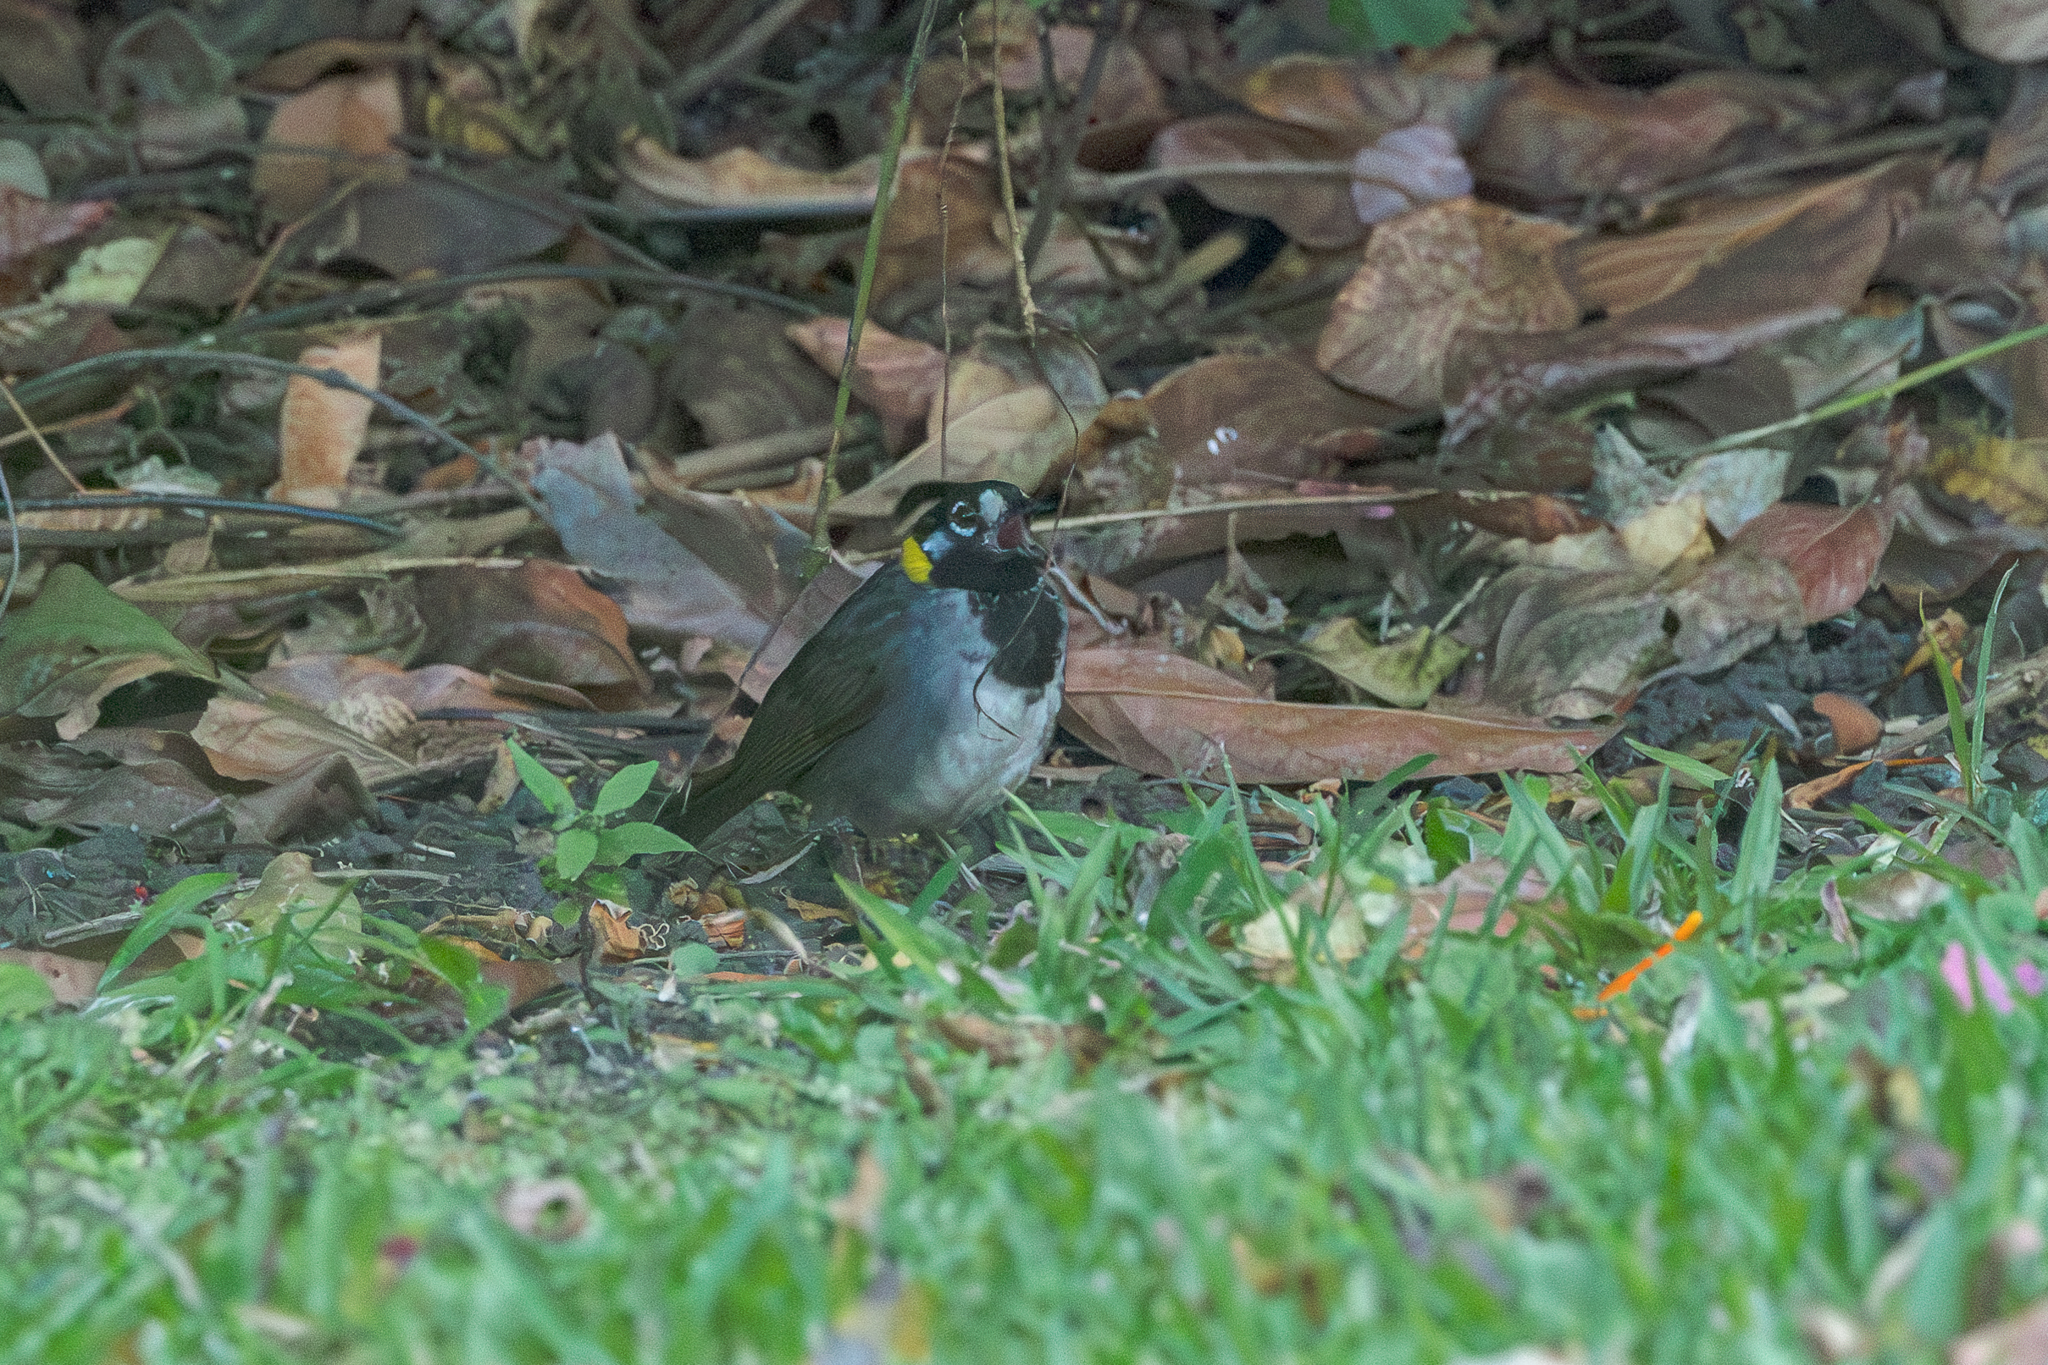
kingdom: Animalia
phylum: Chordata
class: Aves
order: Passeriformes
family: Passerellidae
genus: Melozone
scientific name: Melozone leucotis
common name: White-eared ground-sparrow
